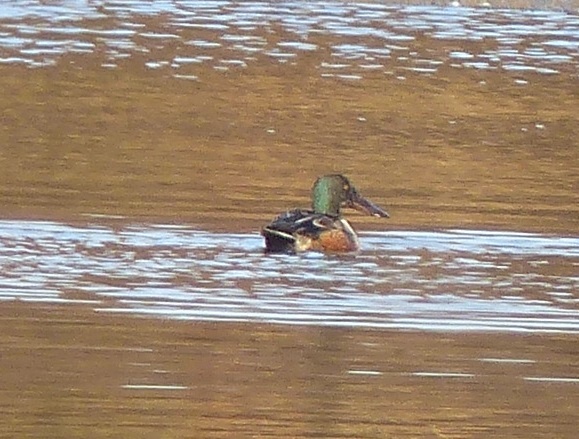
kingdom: Animalia
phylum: Chordata
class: Aves
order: Anseriformes
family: Anatidae
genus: Spatula
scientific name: Spatula clypeata
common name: Northern shoveler
